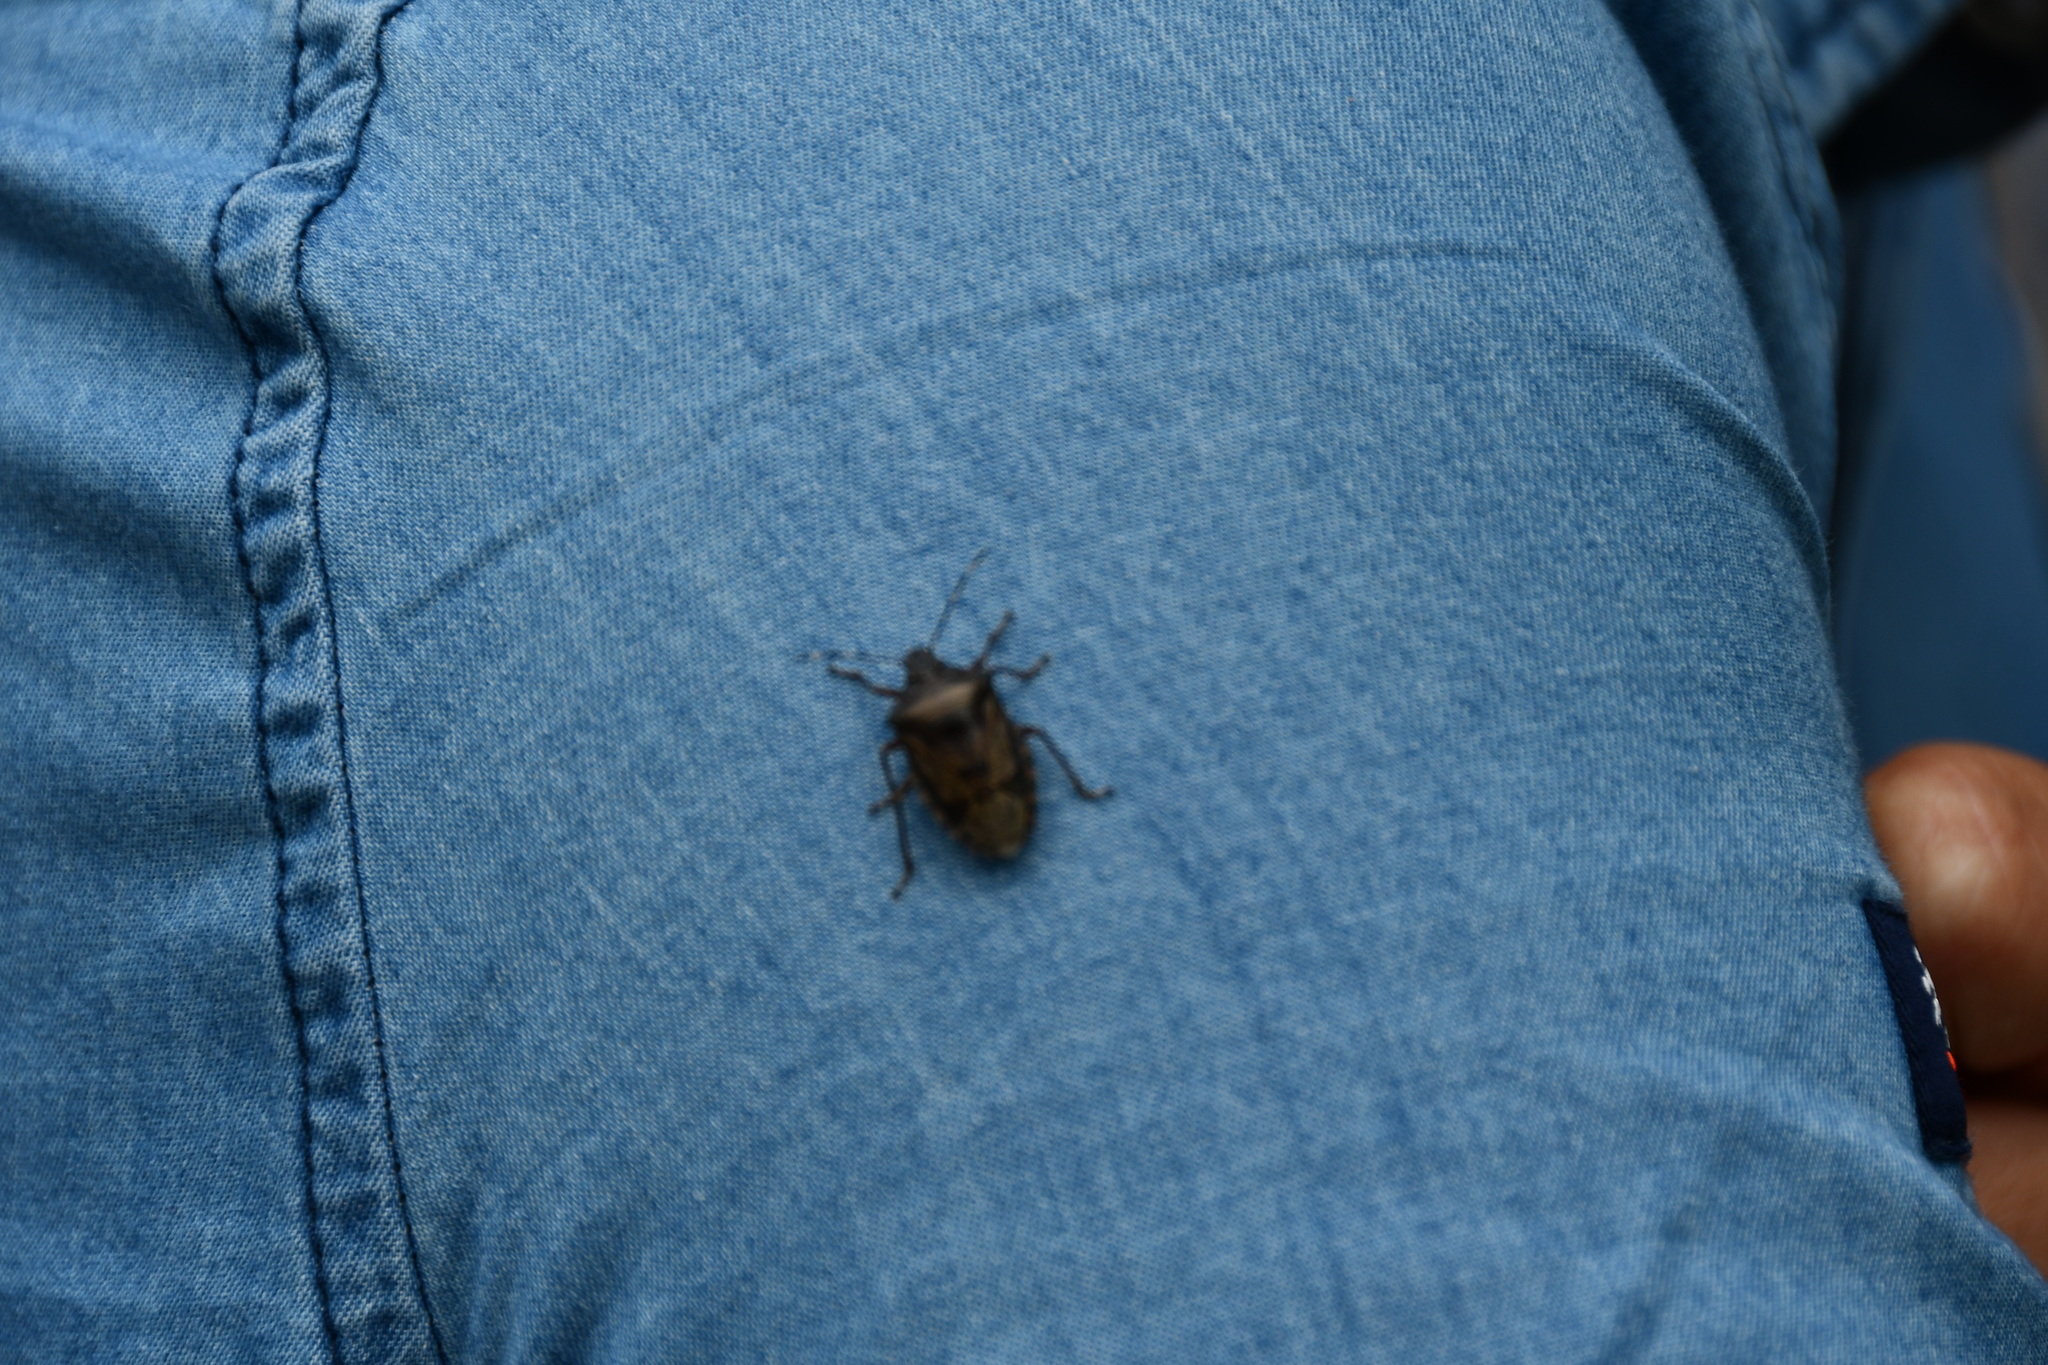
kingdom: Animalia
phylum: Arthropoda
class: Insecta
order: Hemiptera
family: Pentatomidae
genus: Rhaphigaster
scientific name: Rhaphigaster nebulosa
